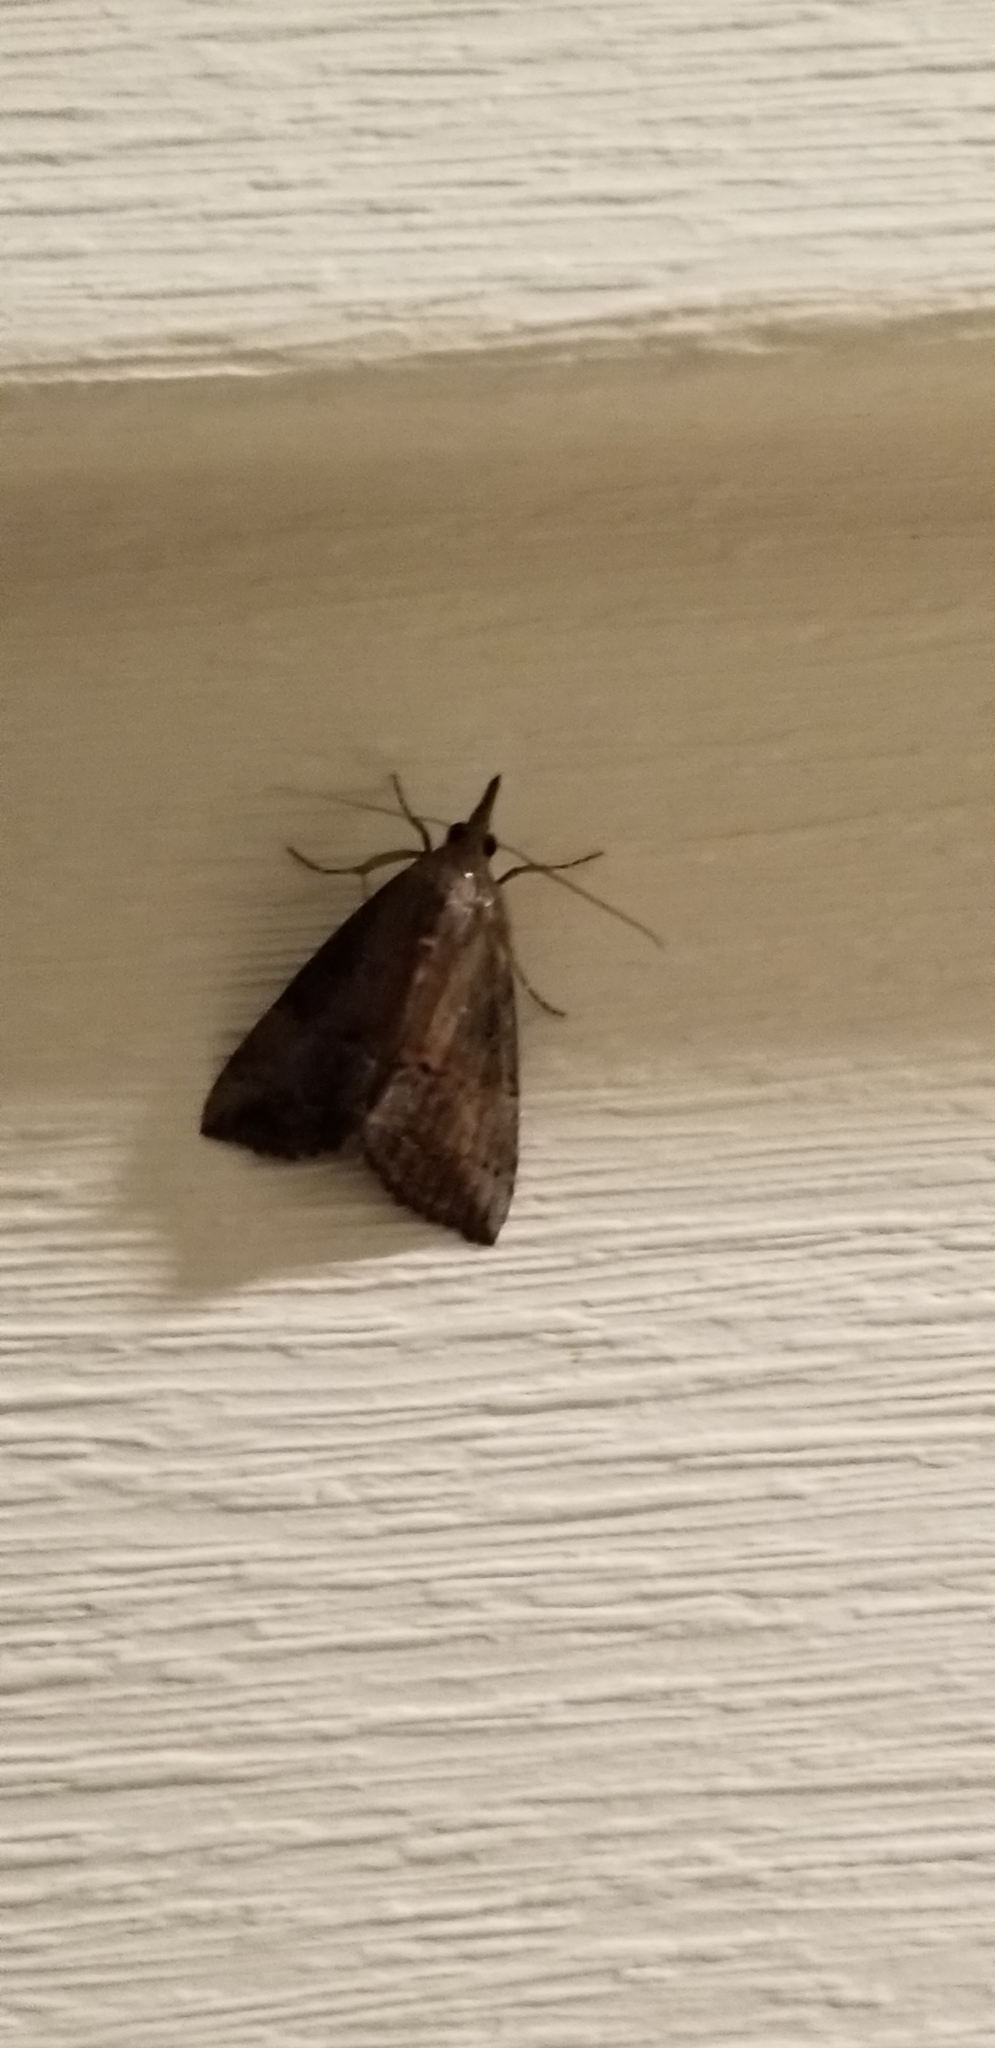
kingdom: Animalia
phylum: Arthropoda
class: Insecta
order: Lepidoptera
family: Erebidae
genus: Hypena
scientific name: Hypena scabra
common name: Green cloverworm
